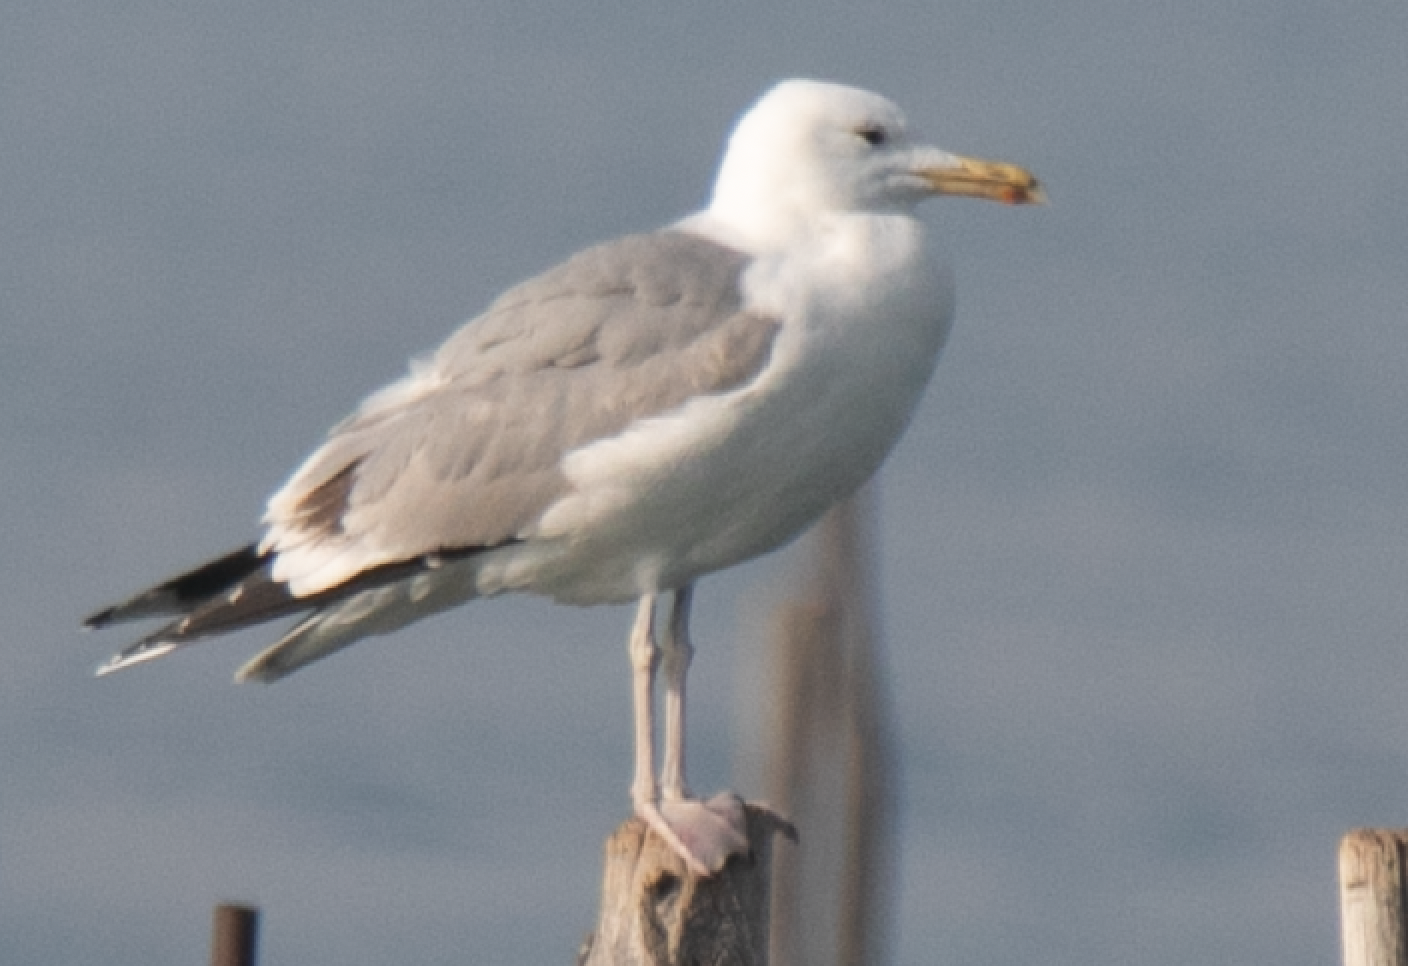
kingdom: Animalia
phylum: Chordata
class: Aves
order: Charadriiformes
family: Laridae
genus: Larus
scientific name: Larus cachinnans
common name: Caspian gull
